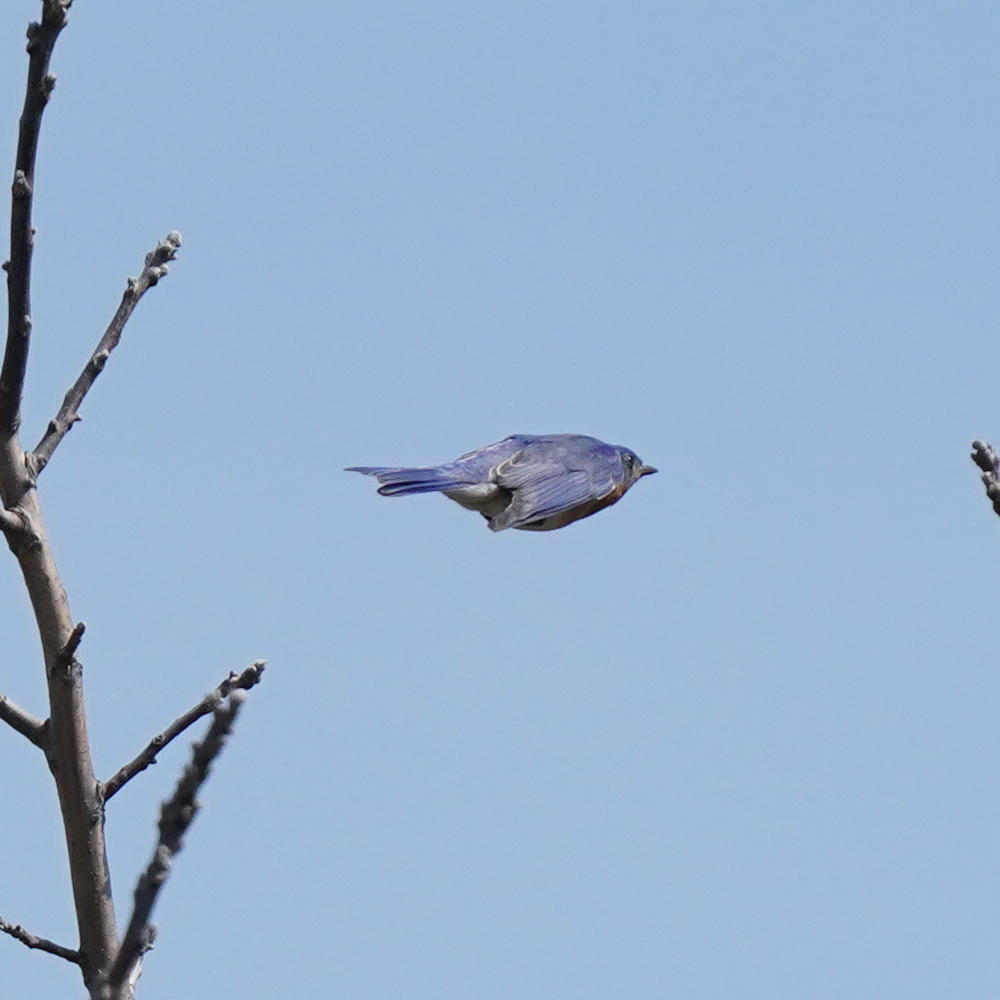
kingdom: Animalia
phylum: Chordata
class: Aves
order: Passeriformes
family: Turdidae
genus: Sialia
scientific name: Sialia sialis
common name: Eastern bluebird
